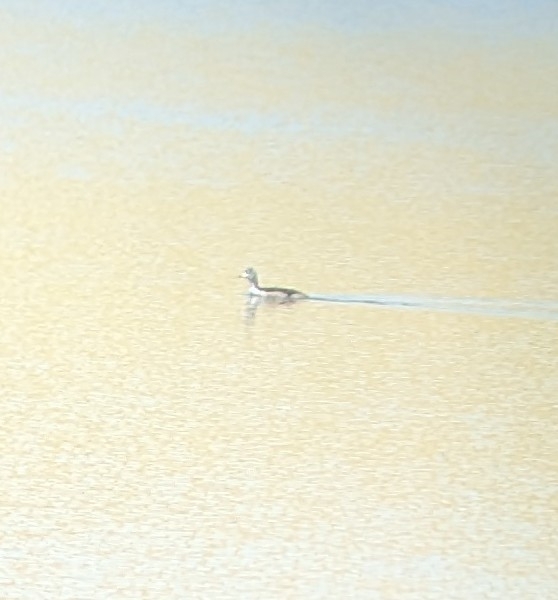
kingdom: Animalia
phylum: Chordata
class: Aves
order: Gruiformes
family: Rallidae
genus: Fulica
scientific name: Fulica americana
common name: American coot
